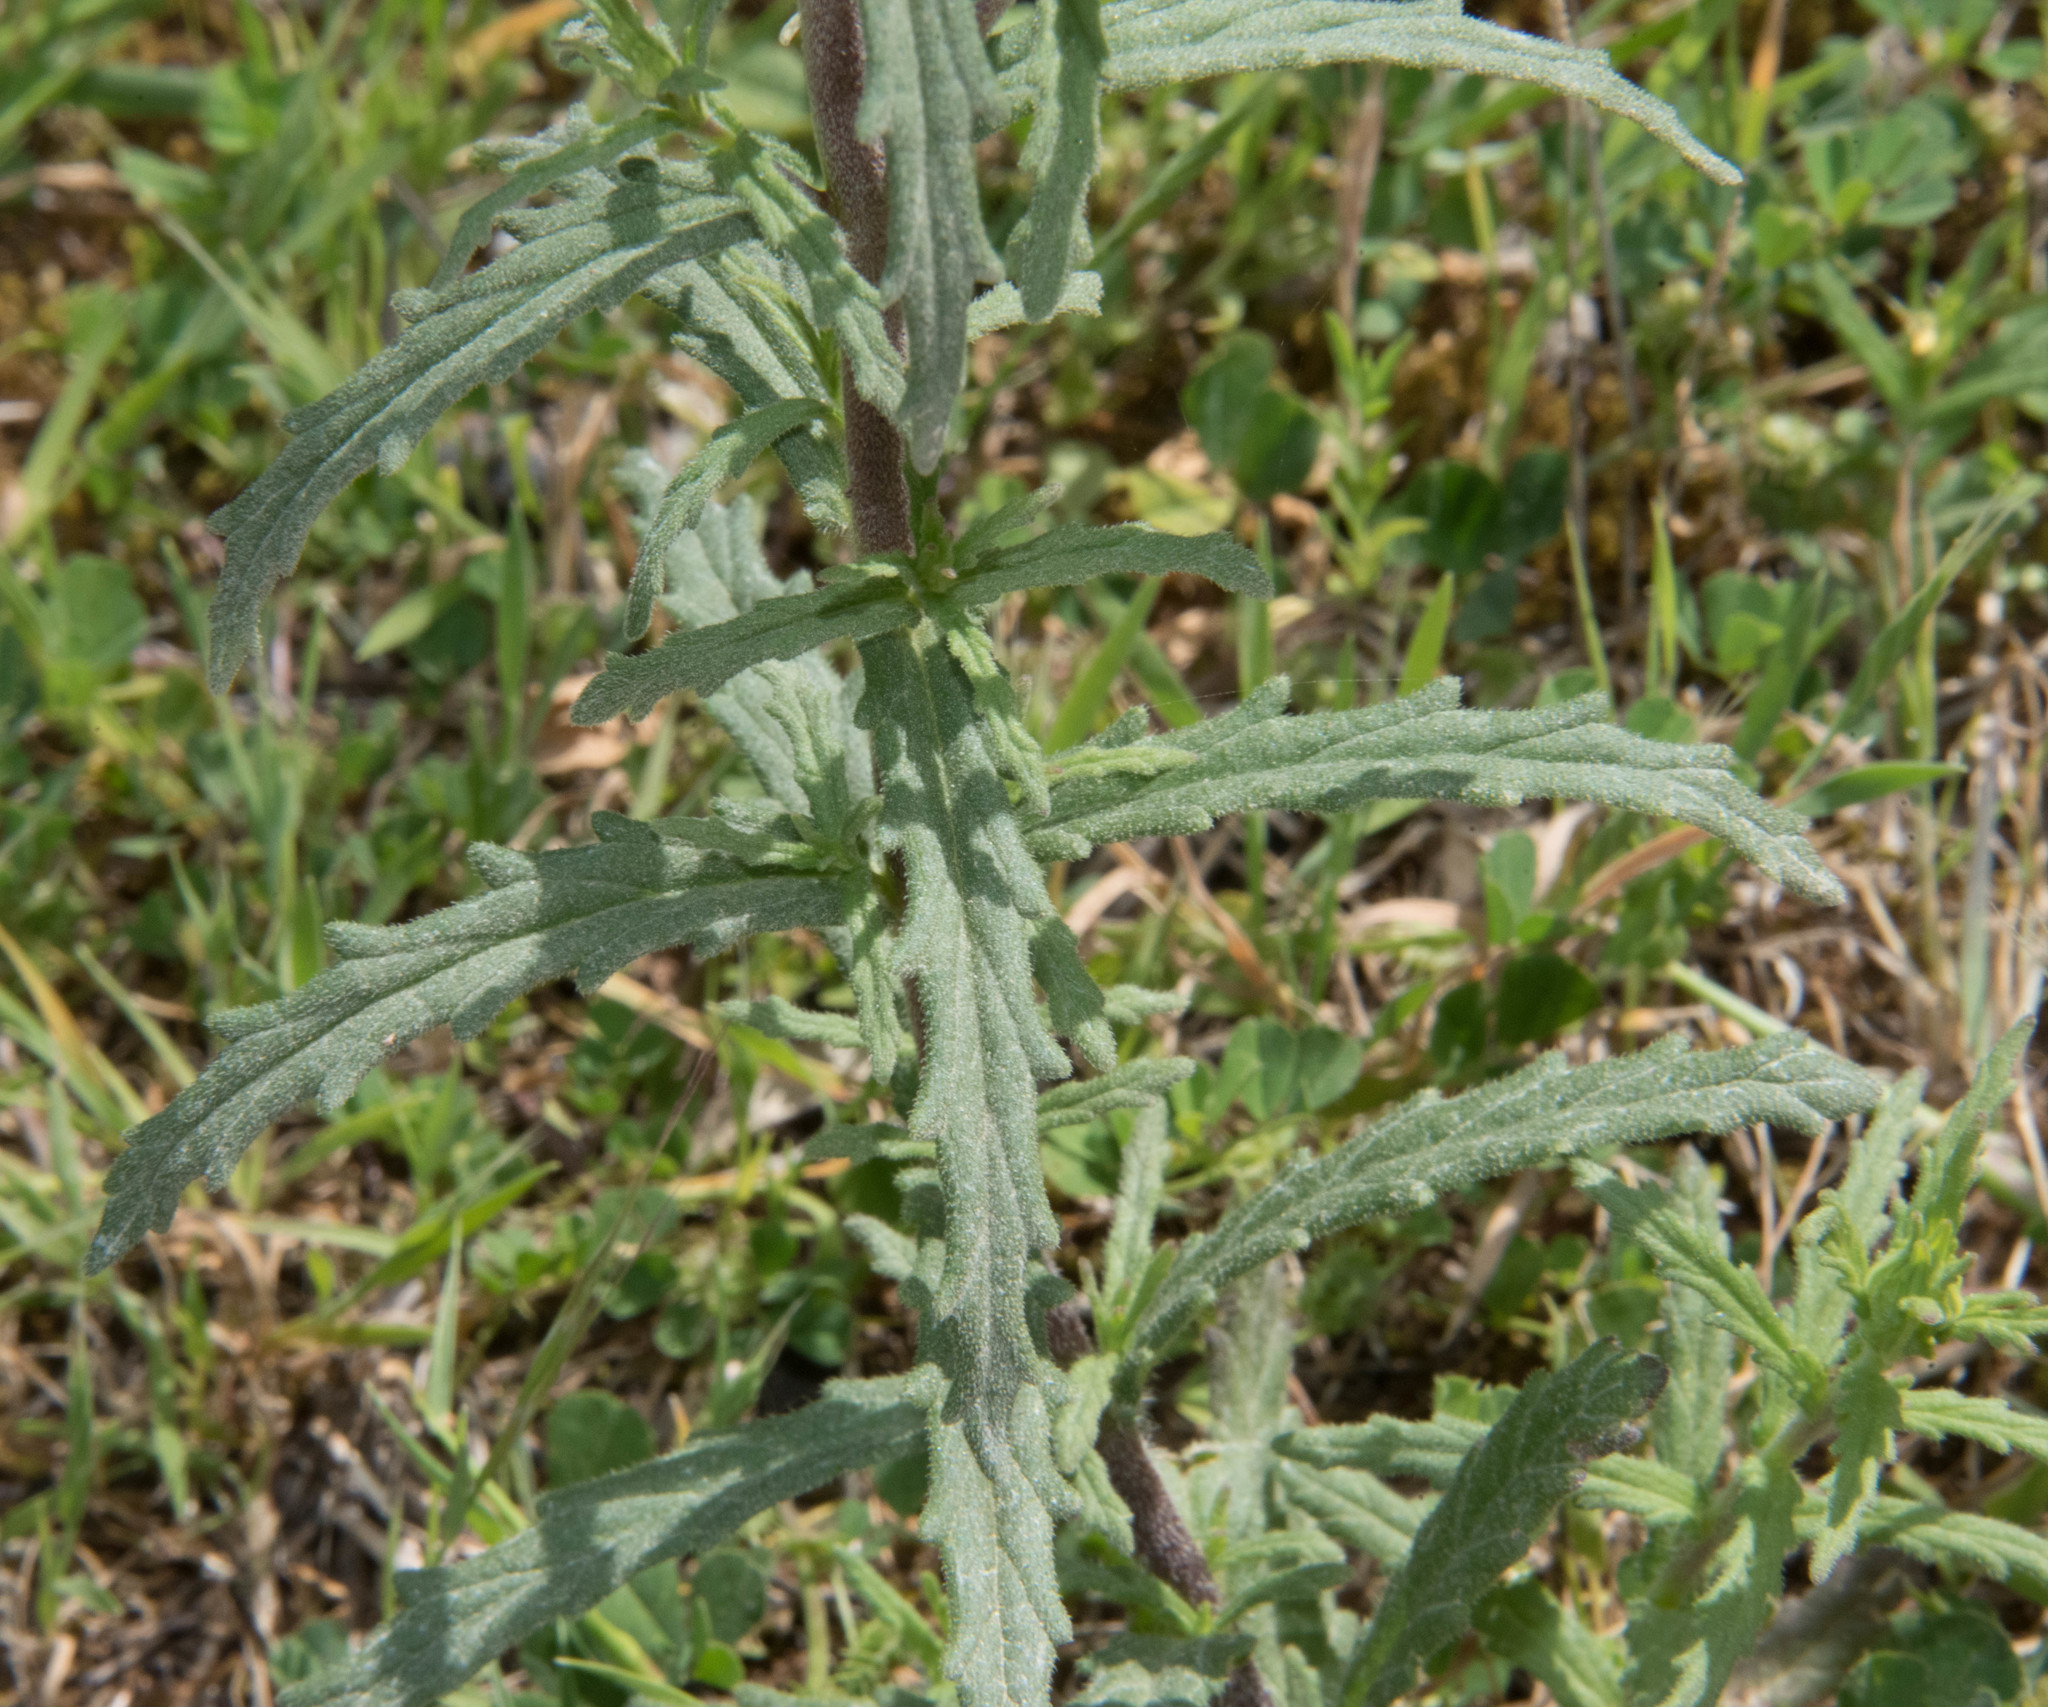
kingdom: Plantae
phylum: Tracheophyta
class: Magnoliopsida
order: Lamiales
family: Orobanchaceae
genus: Bellardia
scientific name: Bellardia trixago
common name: Mediterranean lineseed
